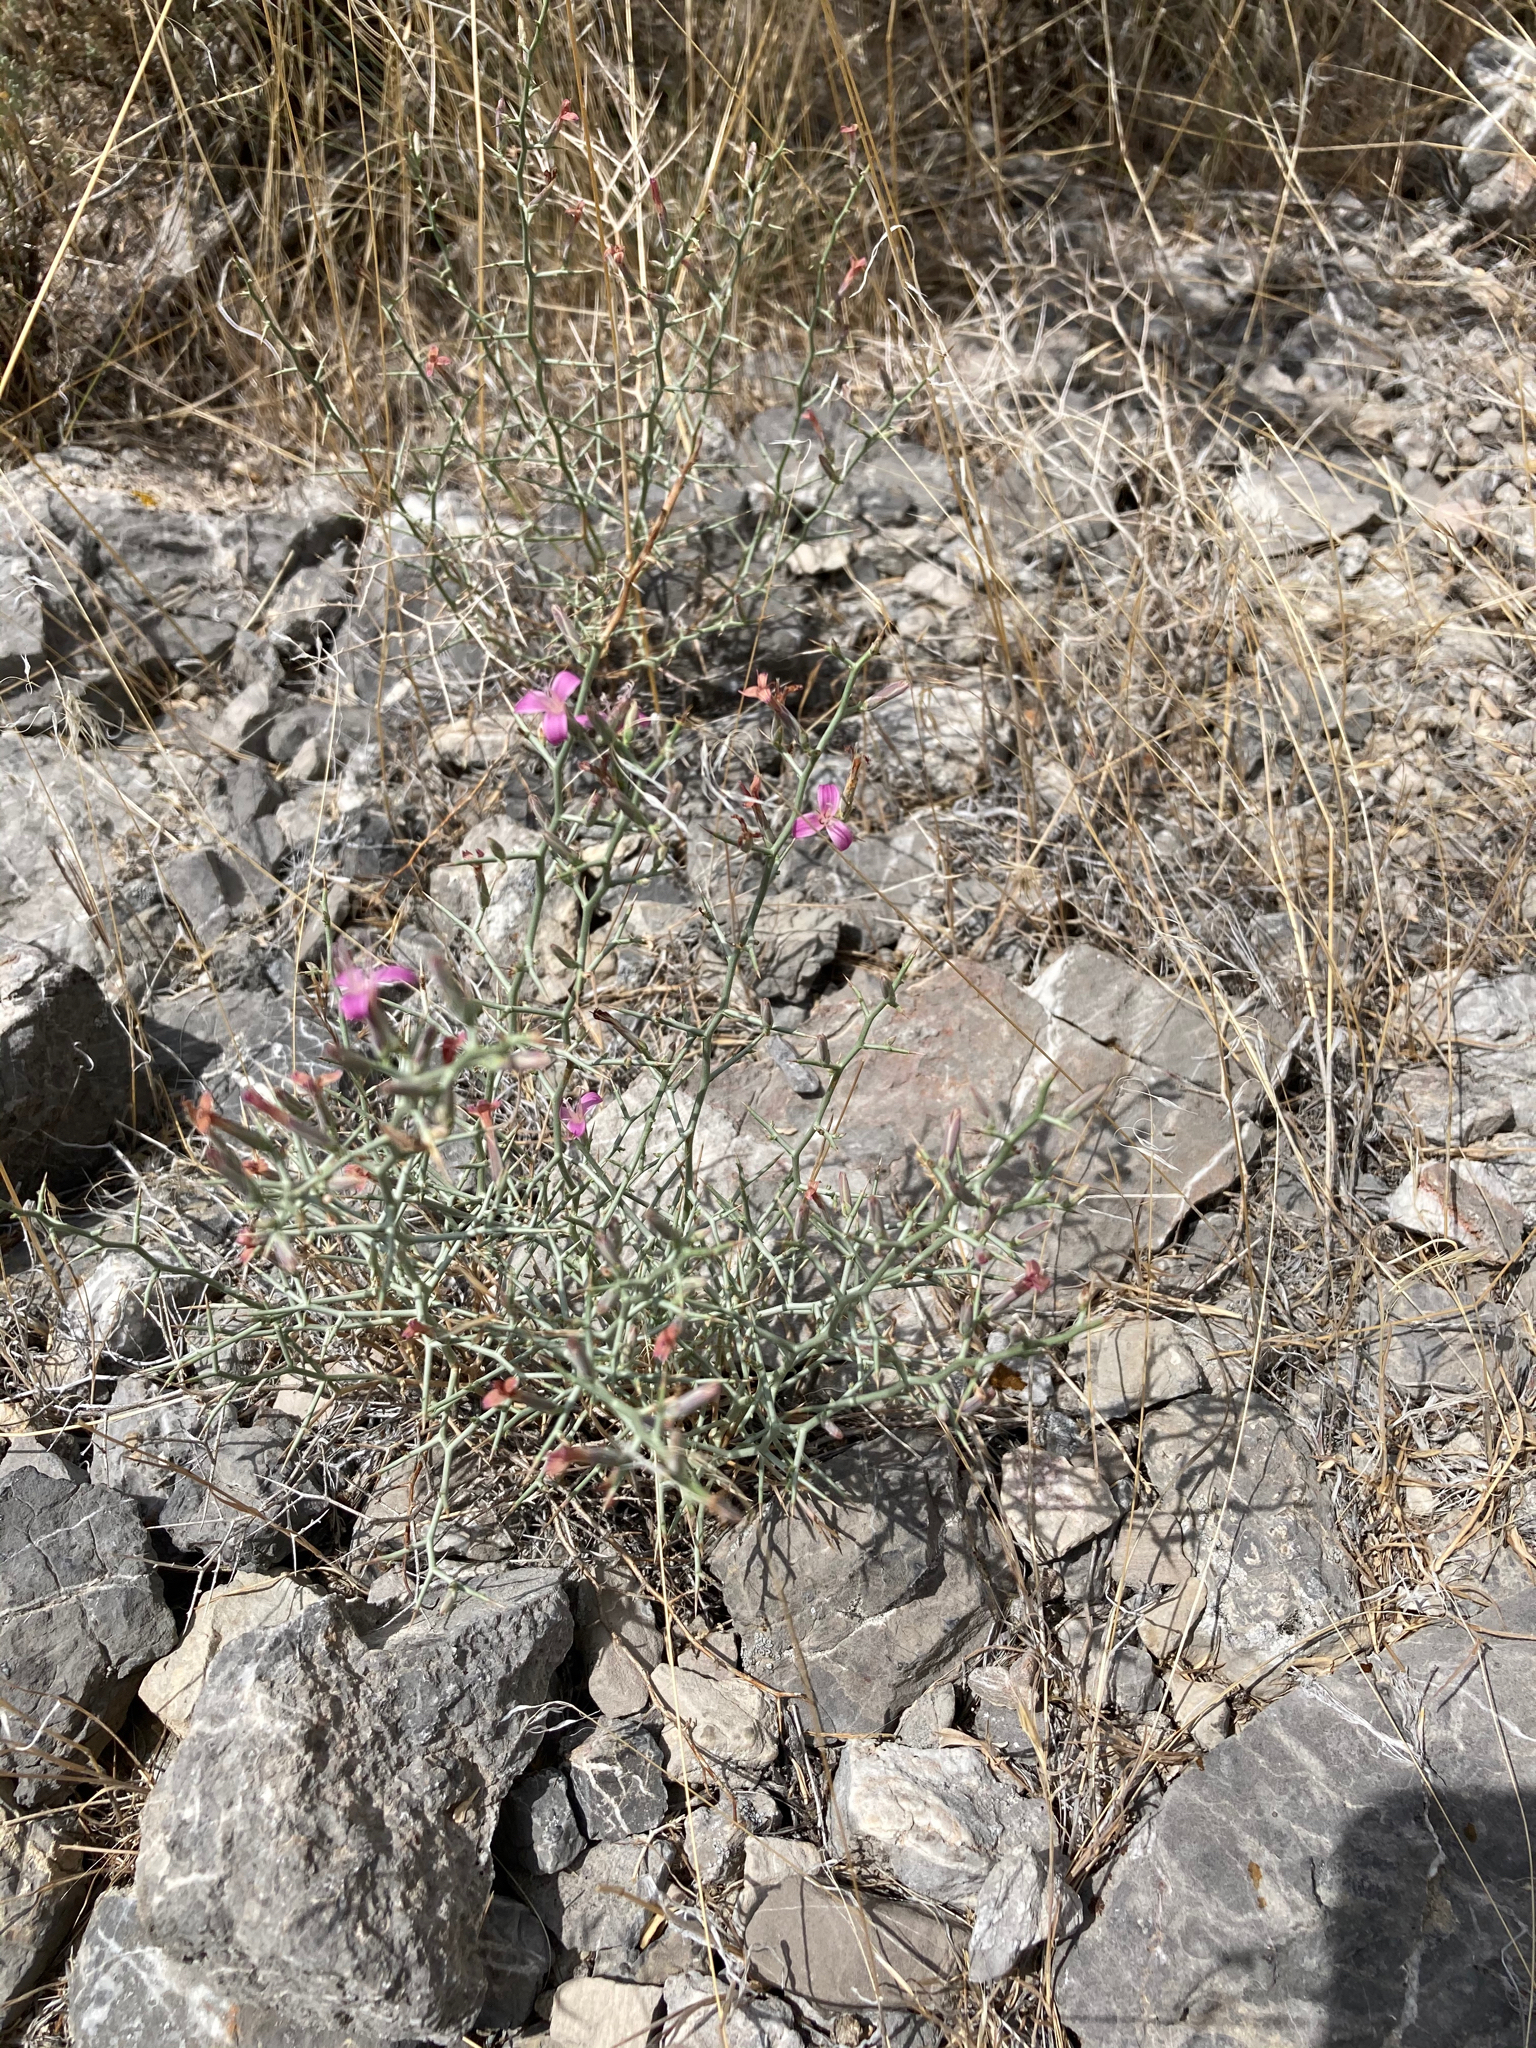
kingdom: Plantae
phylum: Tracheophyta
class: Magnoliopsida
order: Asterales
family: Asteraceae
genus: Pleiacanthus
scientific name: Pleiacanthus spinosus
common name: Thorny skeleton-weed
